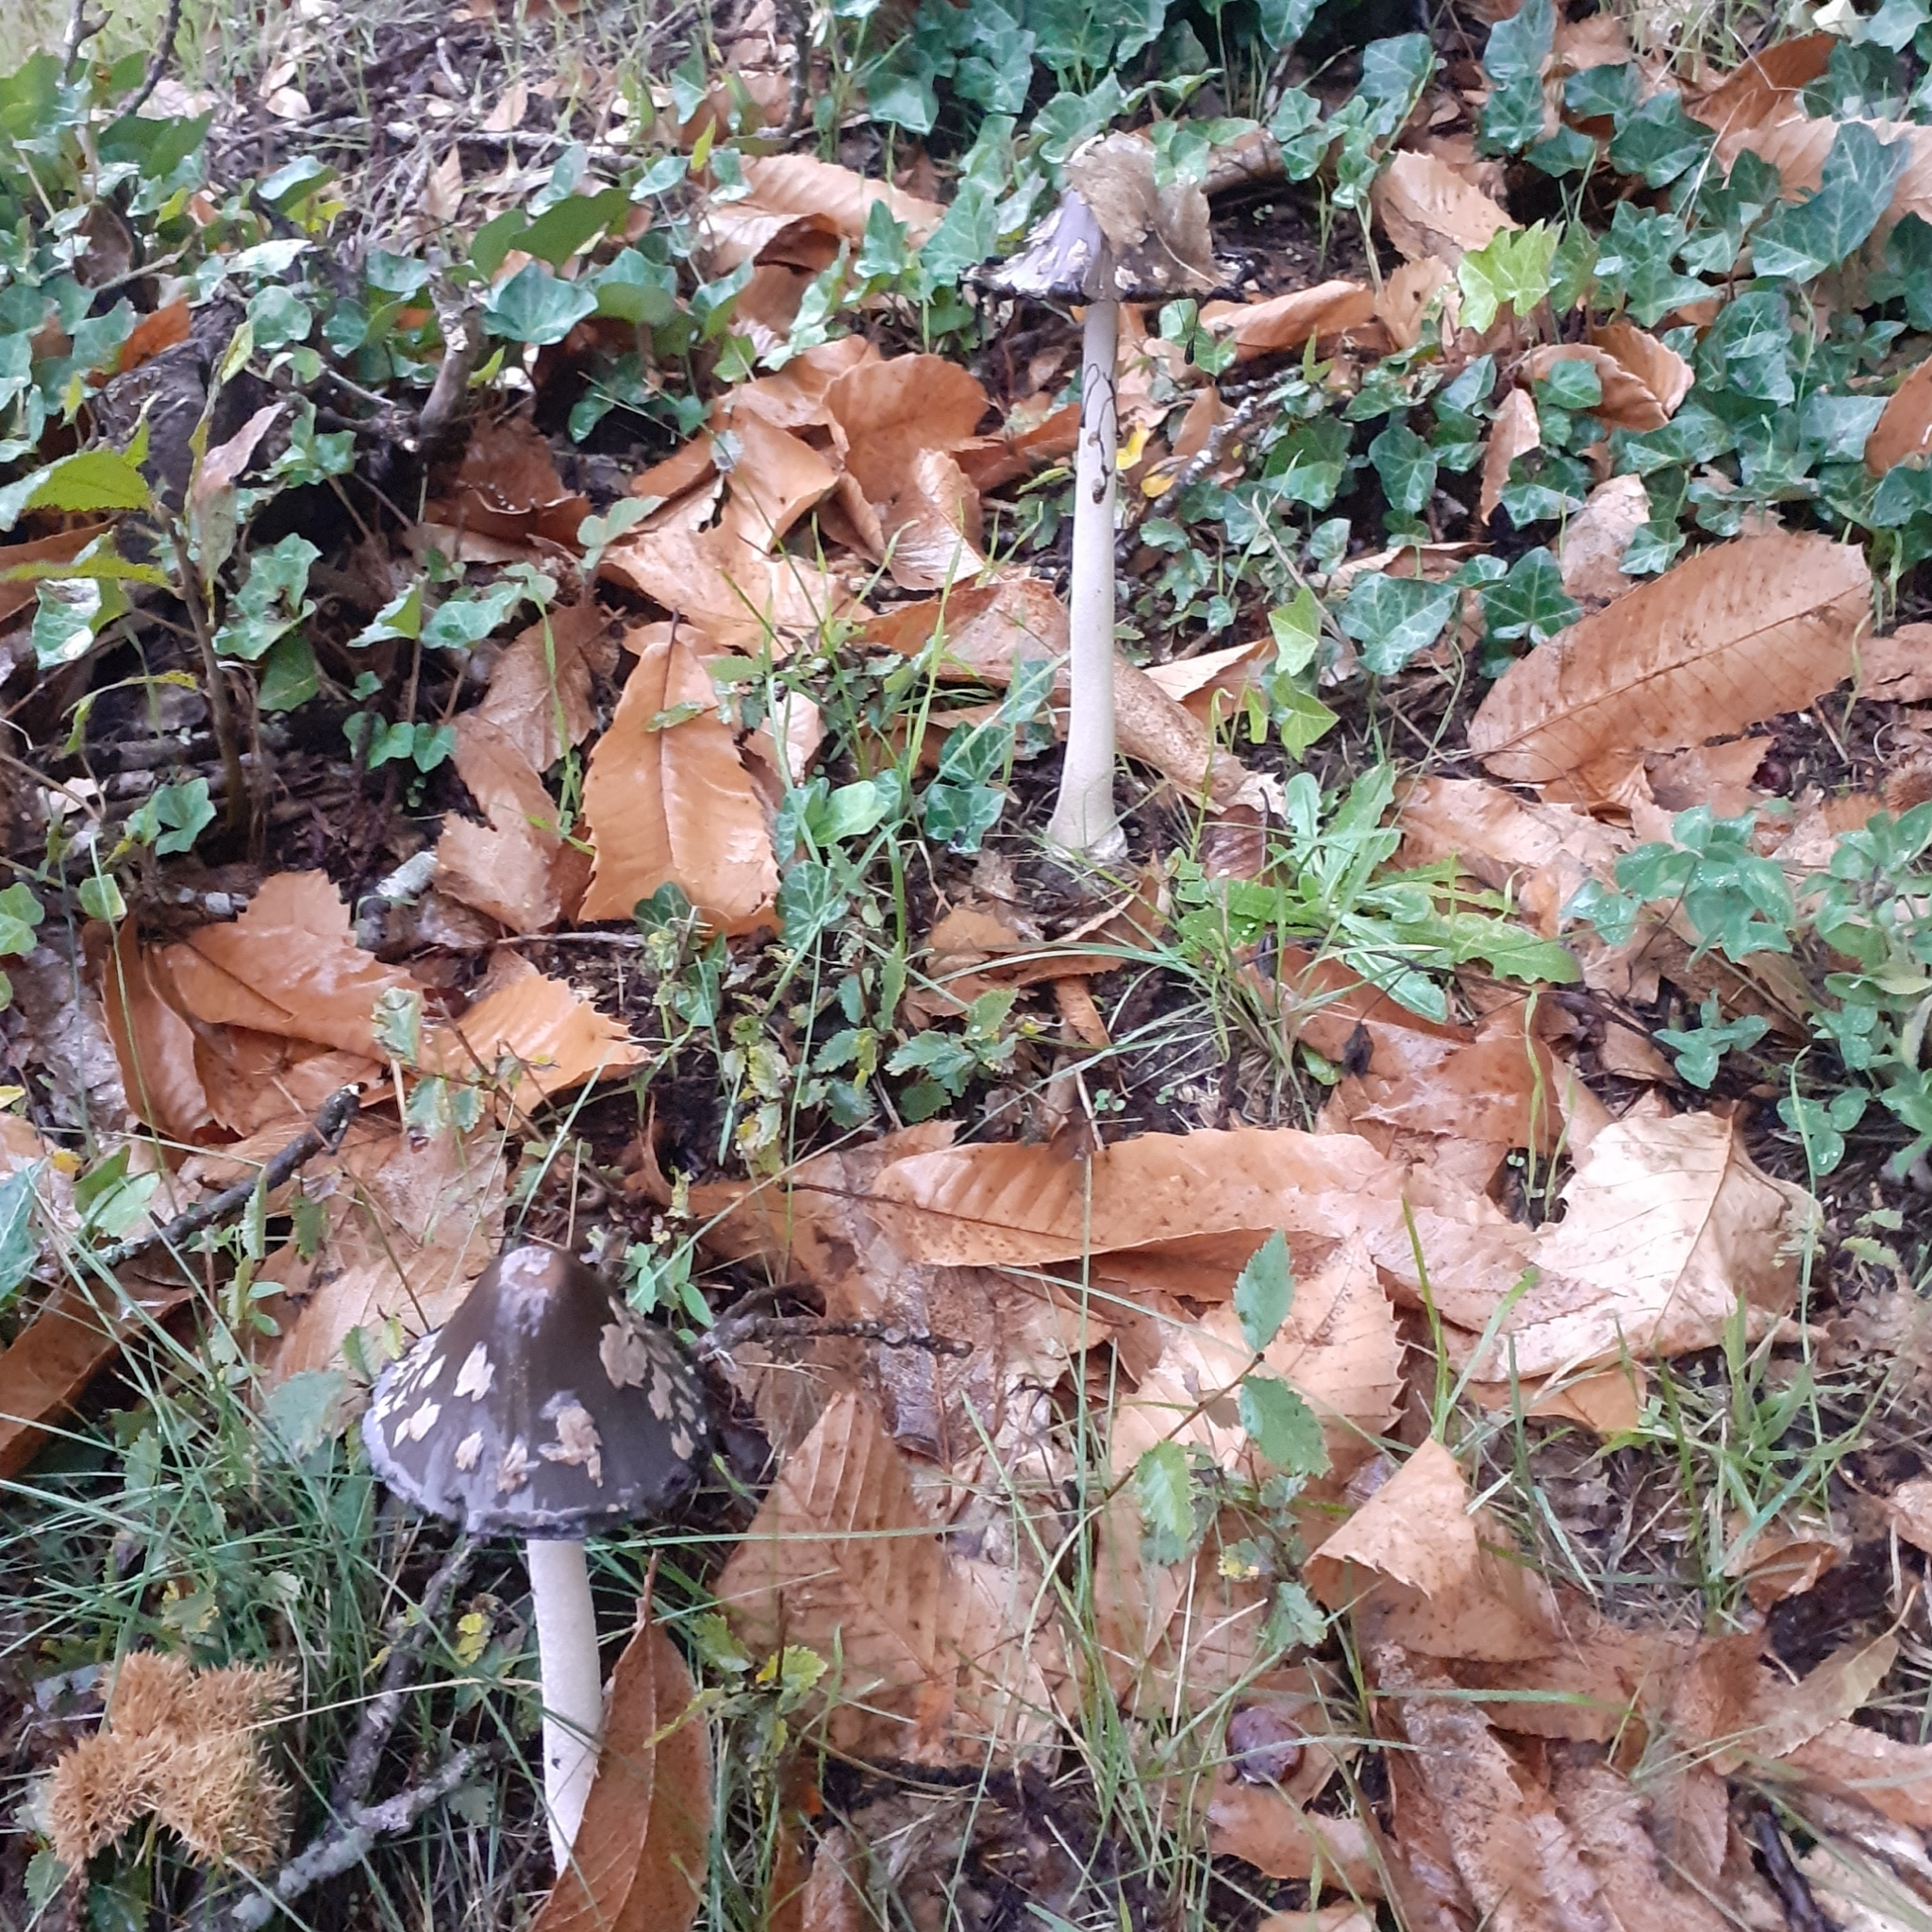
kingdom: Fungi
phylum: Basidiomycota
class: Agaricomycetes
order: Agaricales
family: Psathyrellaceae
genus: Coprinopsis
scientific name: Coprinopsis picacea
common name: Magpie inkcap
